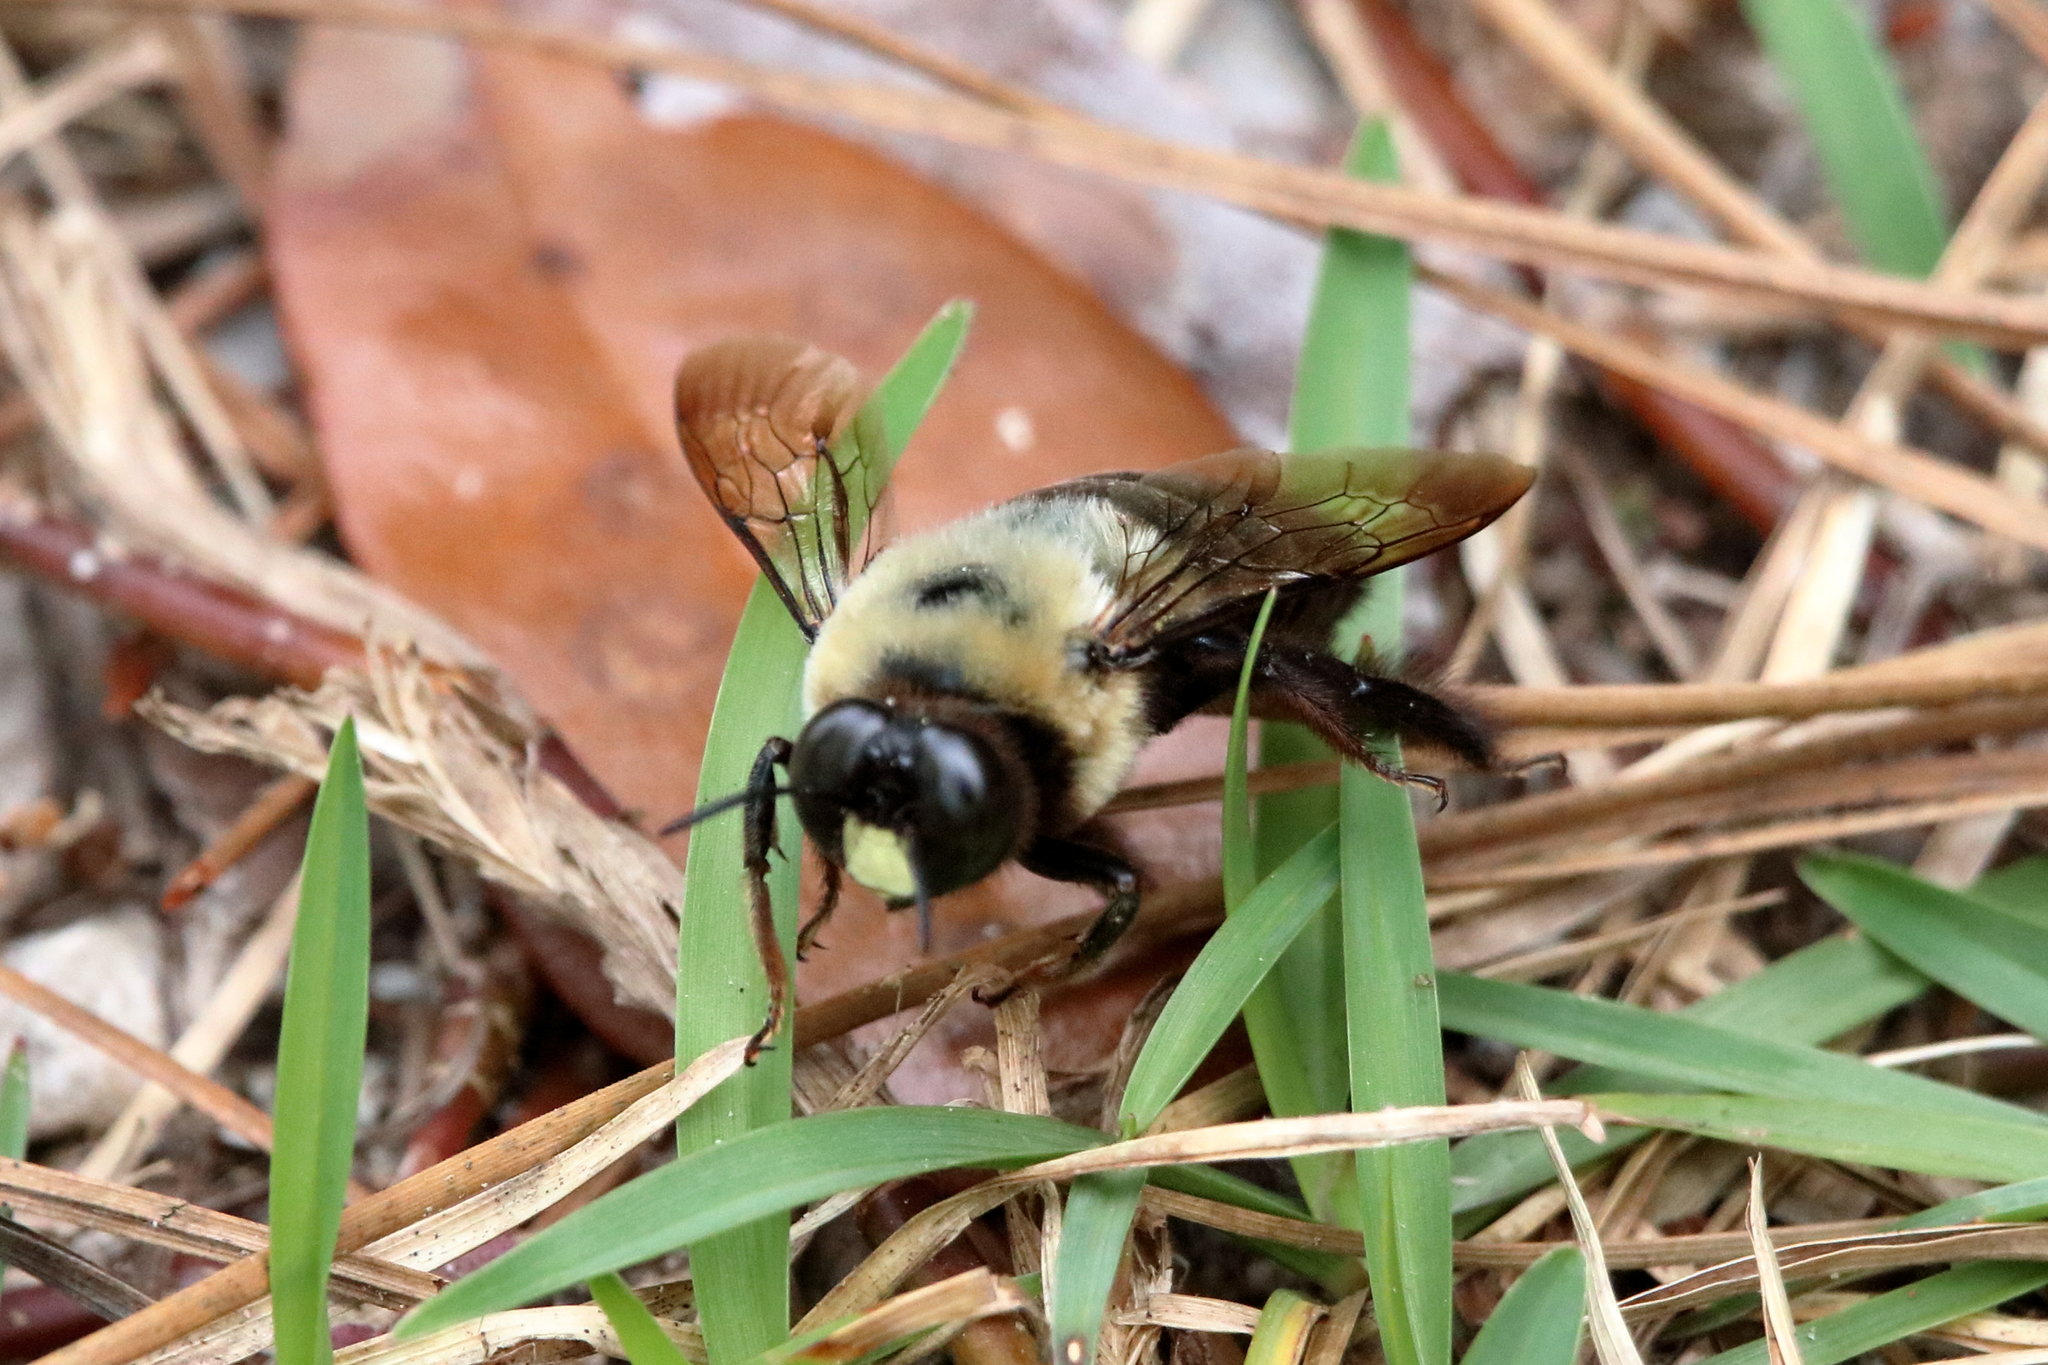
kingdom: Animalia
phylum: Arthropoda
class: Insecta
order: Hymenoptera
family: Apidae
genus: Xylocopa
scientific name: Xylocopa virginica
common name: Carpenter bee
